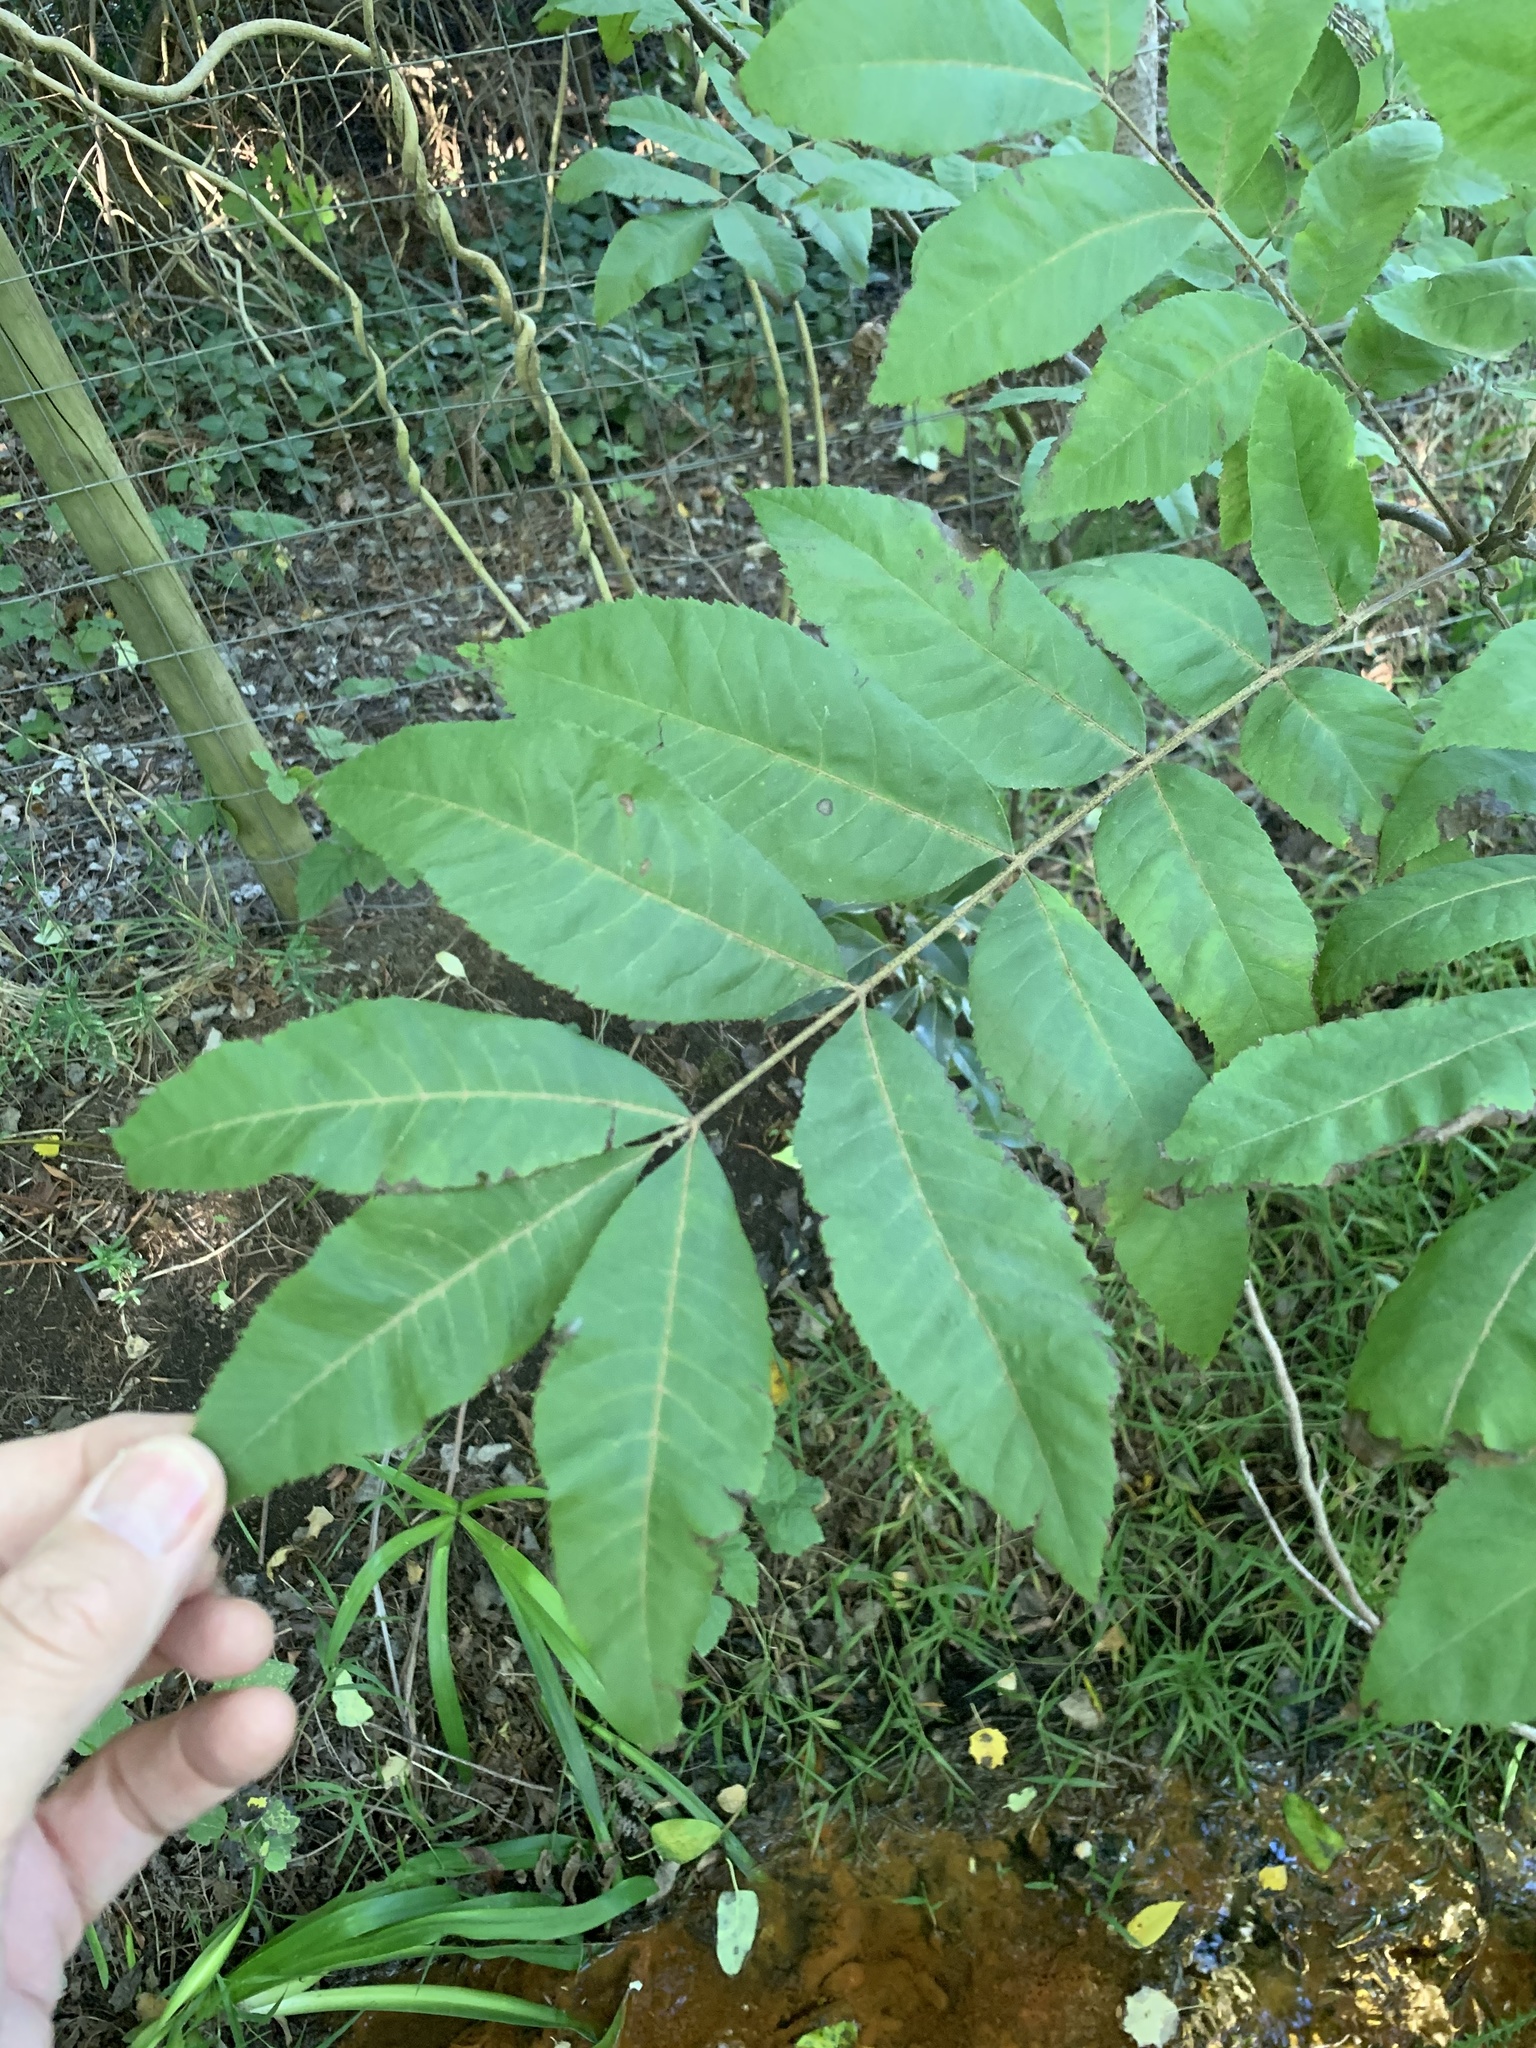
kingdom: Plantae
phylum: Tracheophyta
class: Magnoliopsida
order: Fagales
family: Juglandaceae
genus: Carya
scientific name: Carya illinoinensis
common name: Pecan
